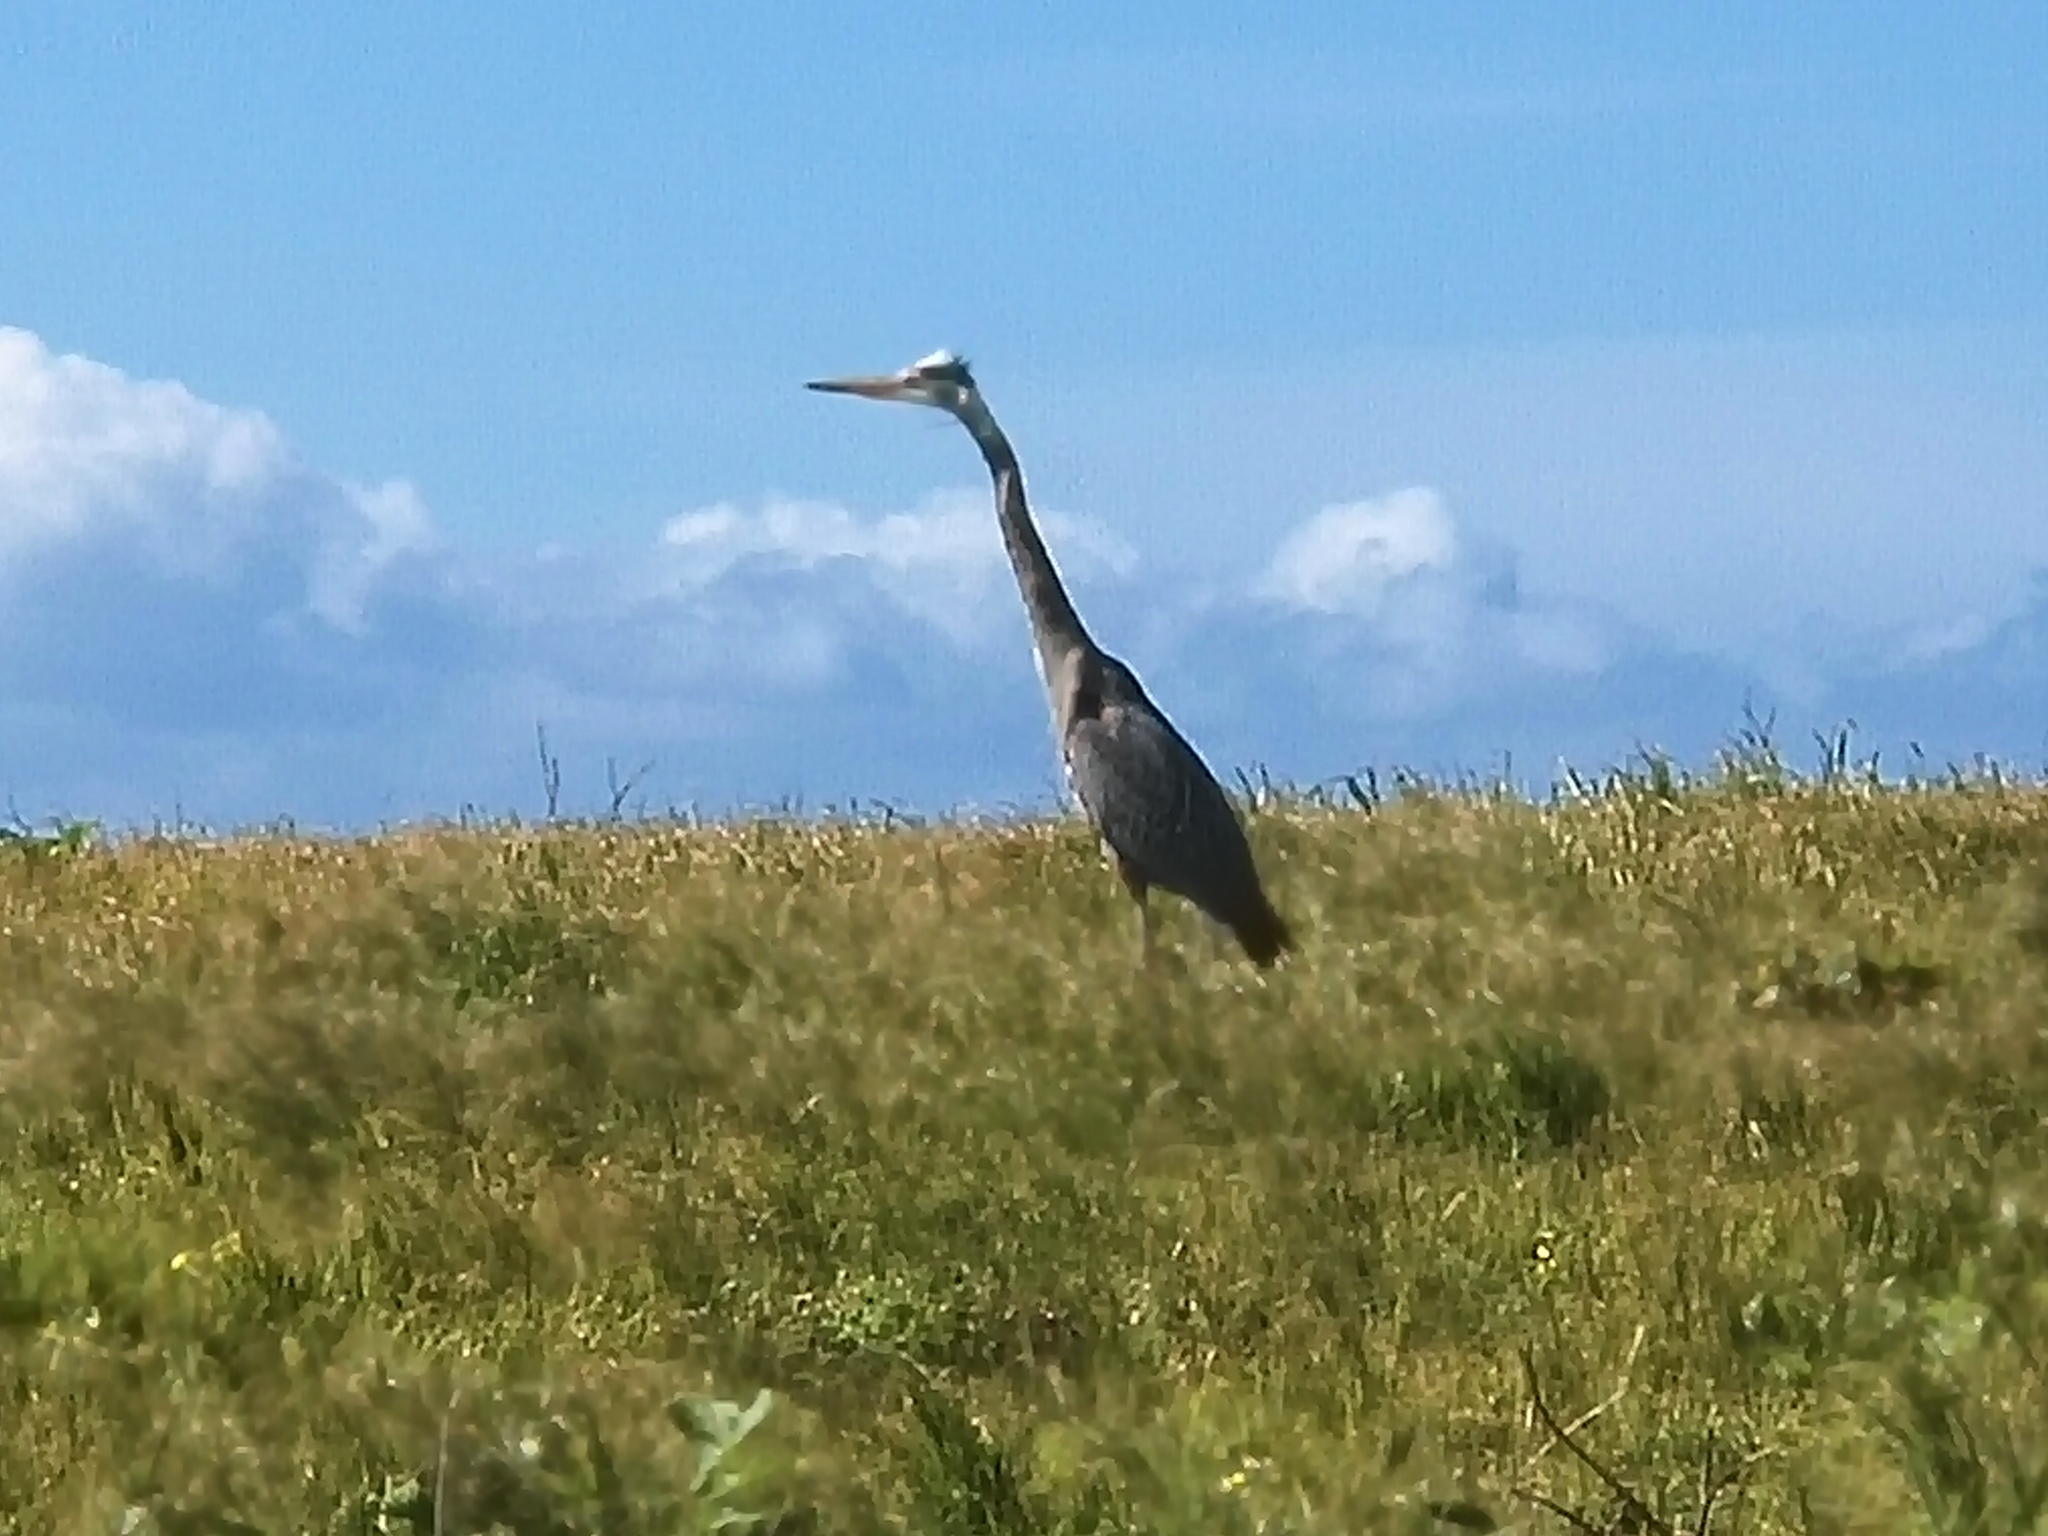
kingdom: Animalia
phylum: Chordata
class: Aves
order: Pelecaniformes
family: Ardeidae
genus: Ardea
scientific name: Ardea herodias
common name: Great blue heron
